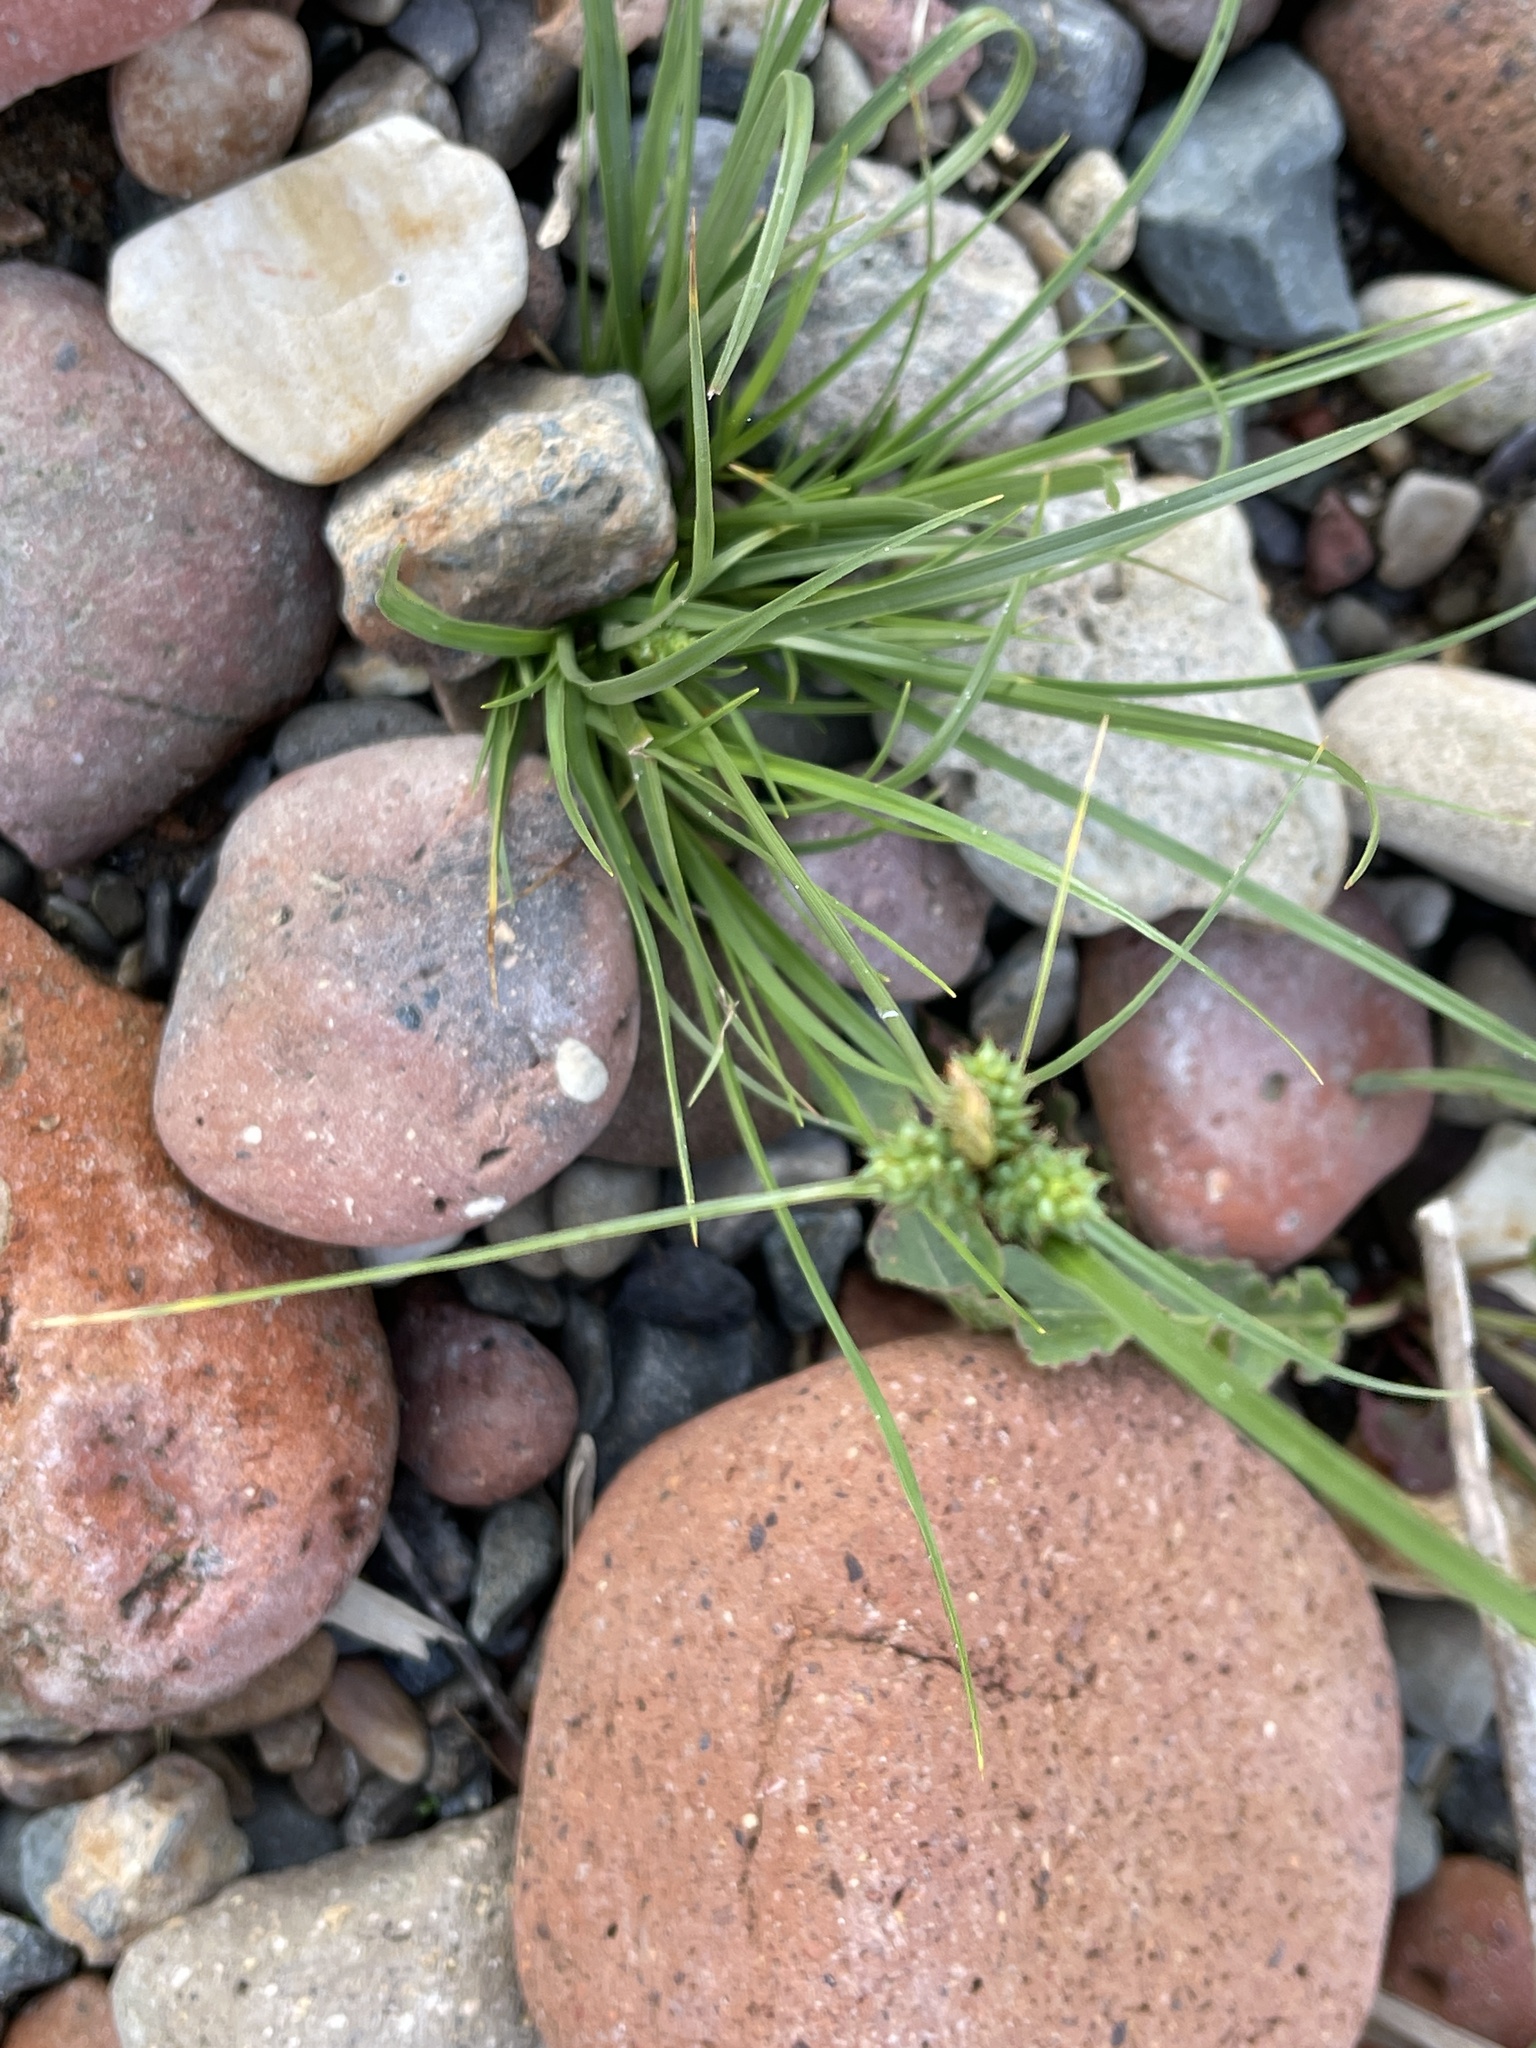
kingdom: Plantae
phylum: Tracheophyta
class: Liliopsida
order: Poales
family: Cyperaceae
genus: Carex
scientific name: Carex extensa
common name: Long-bracted sedge
